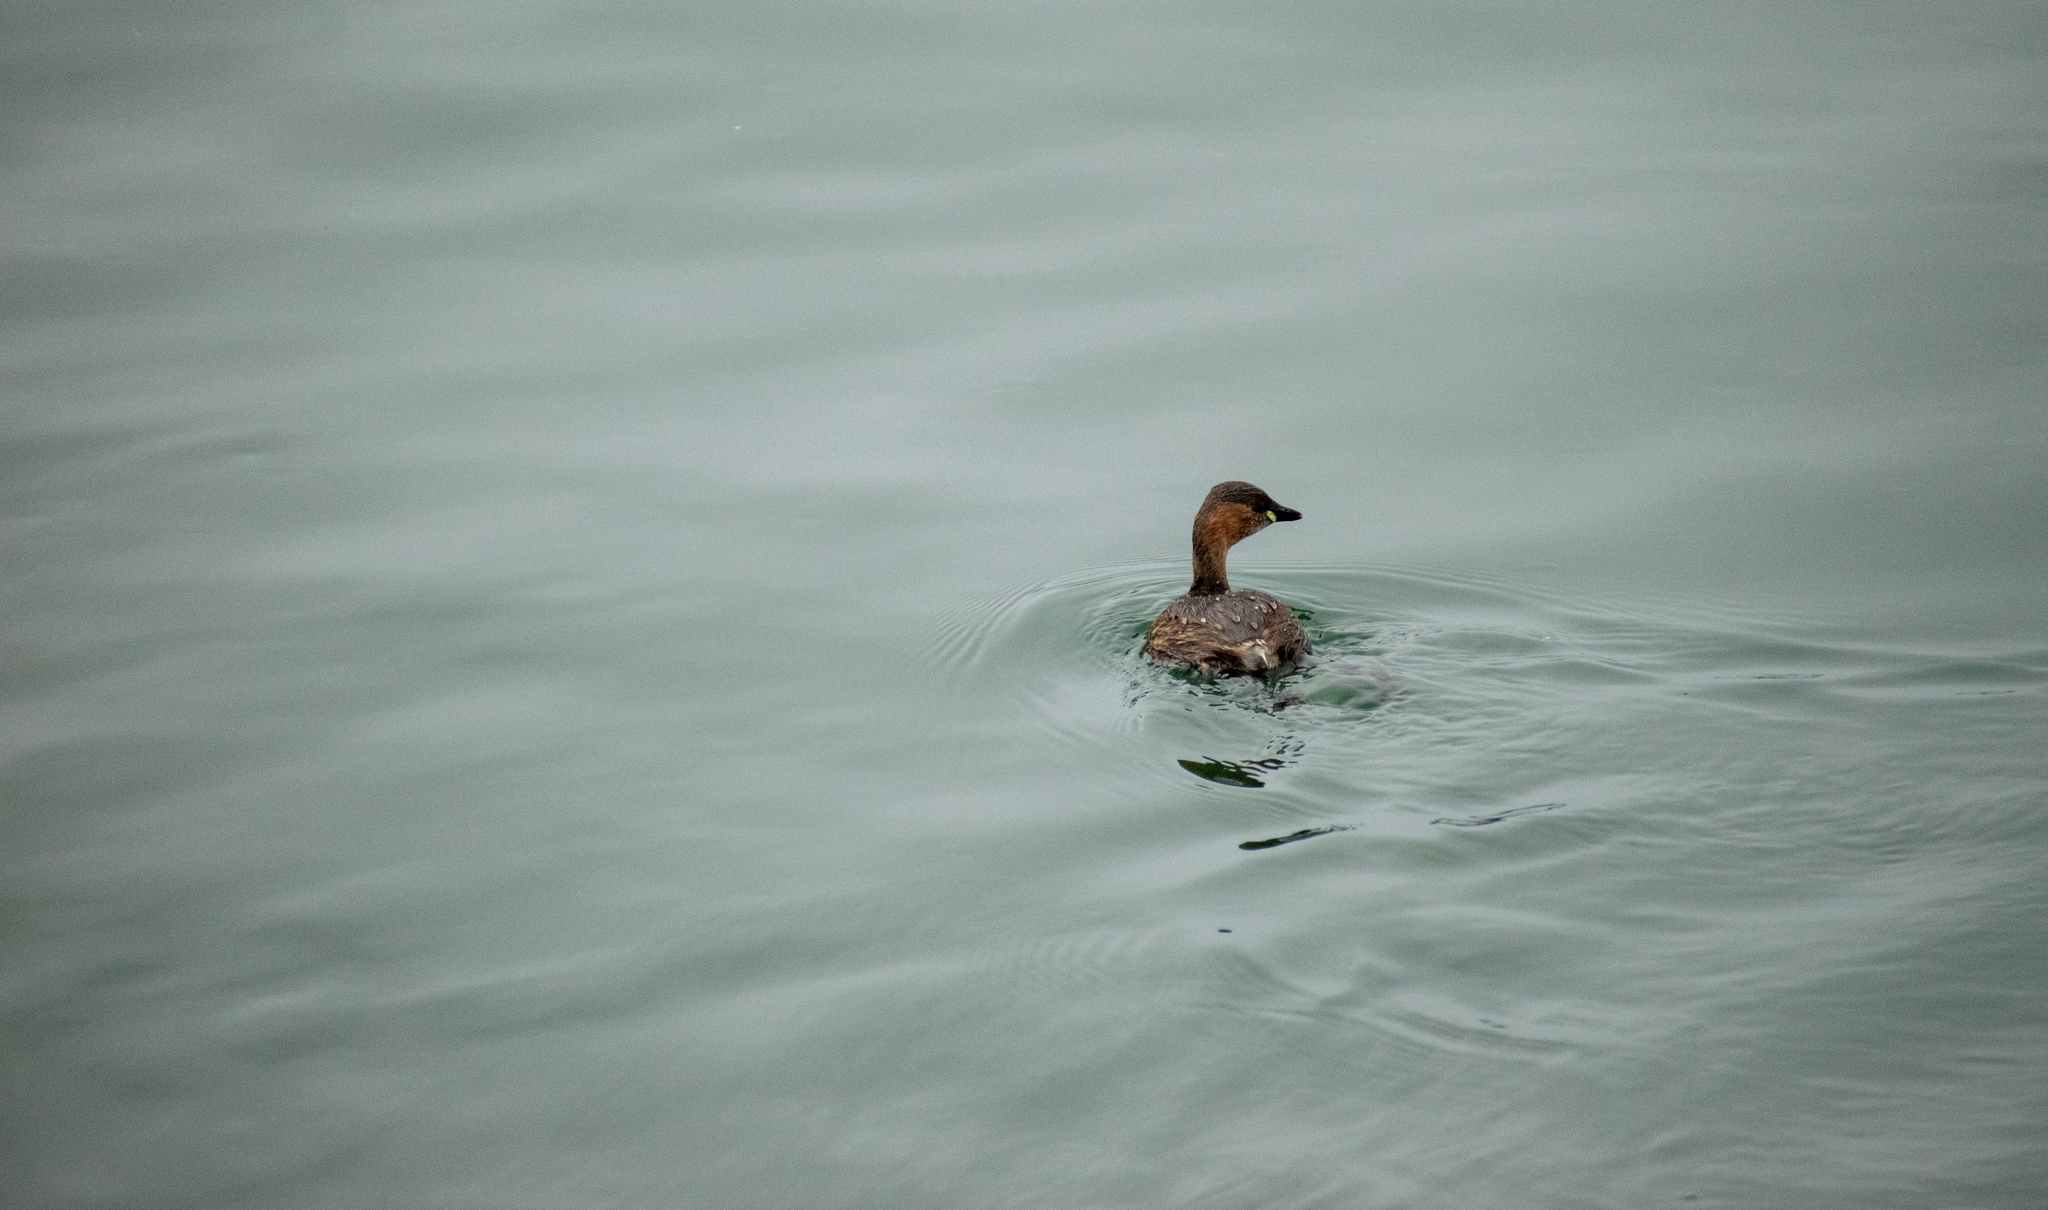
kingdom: Animalia
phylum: Chordata
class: Aves
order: Podicipediformes
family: Podicipedidae
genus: Tachybaptus
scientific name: Tachybaptus ruficollis
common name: Little grebe
